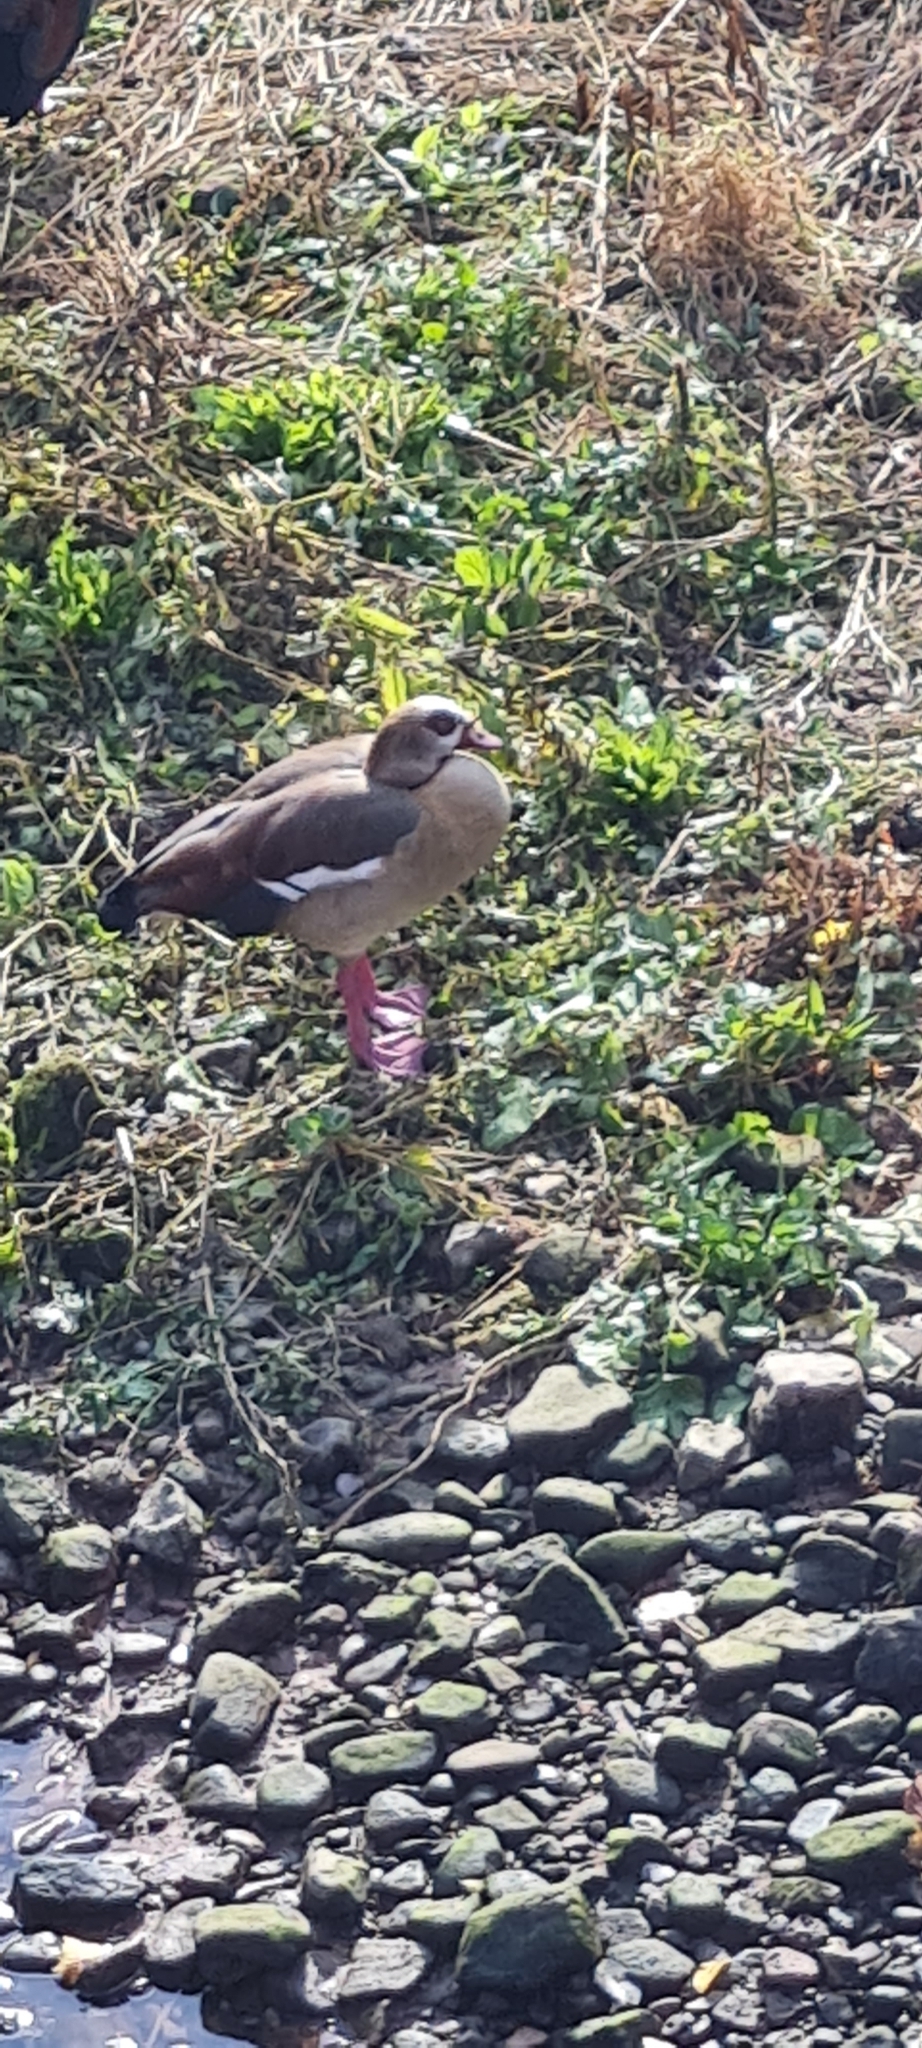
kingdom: Animalia
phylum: Chordata
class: Aves
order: Anseriformes
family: Anatidae
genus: Alopochen
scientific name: Alopochen aegyptiaca
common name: Egyptian goose
